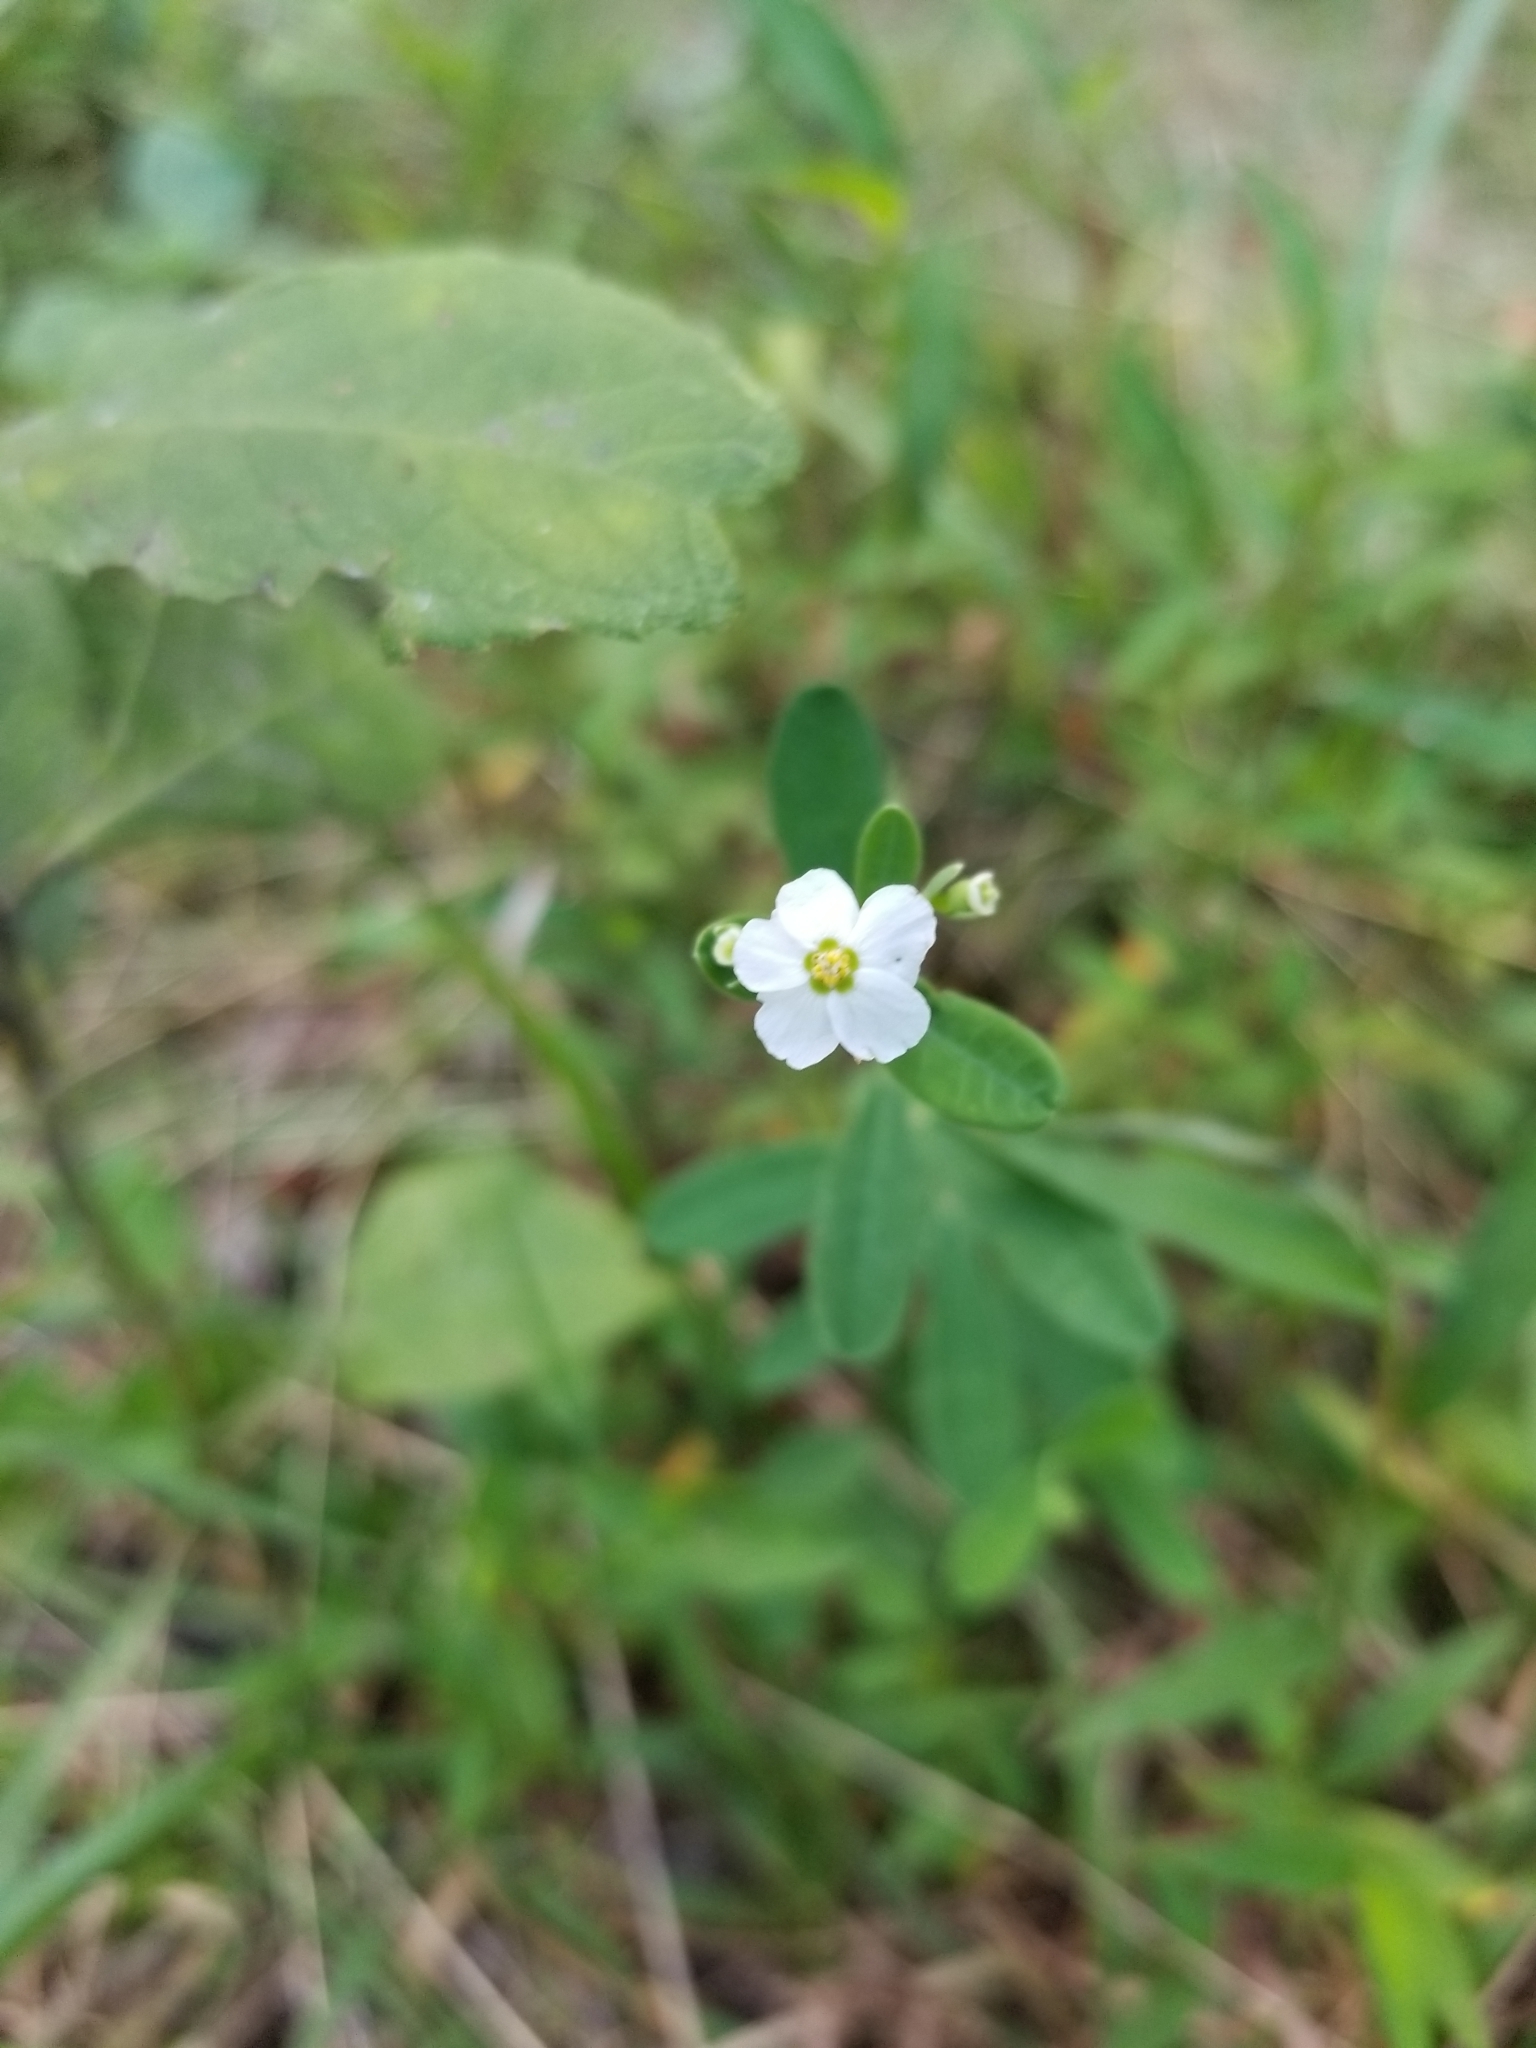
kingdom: Plantae
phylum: Tracheophyta
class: Magnoliopsida
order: Malpighiales
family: Euphorbiaceae
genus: Euphorbia
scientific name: Euphorbia corollata
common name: Flowering spurge
